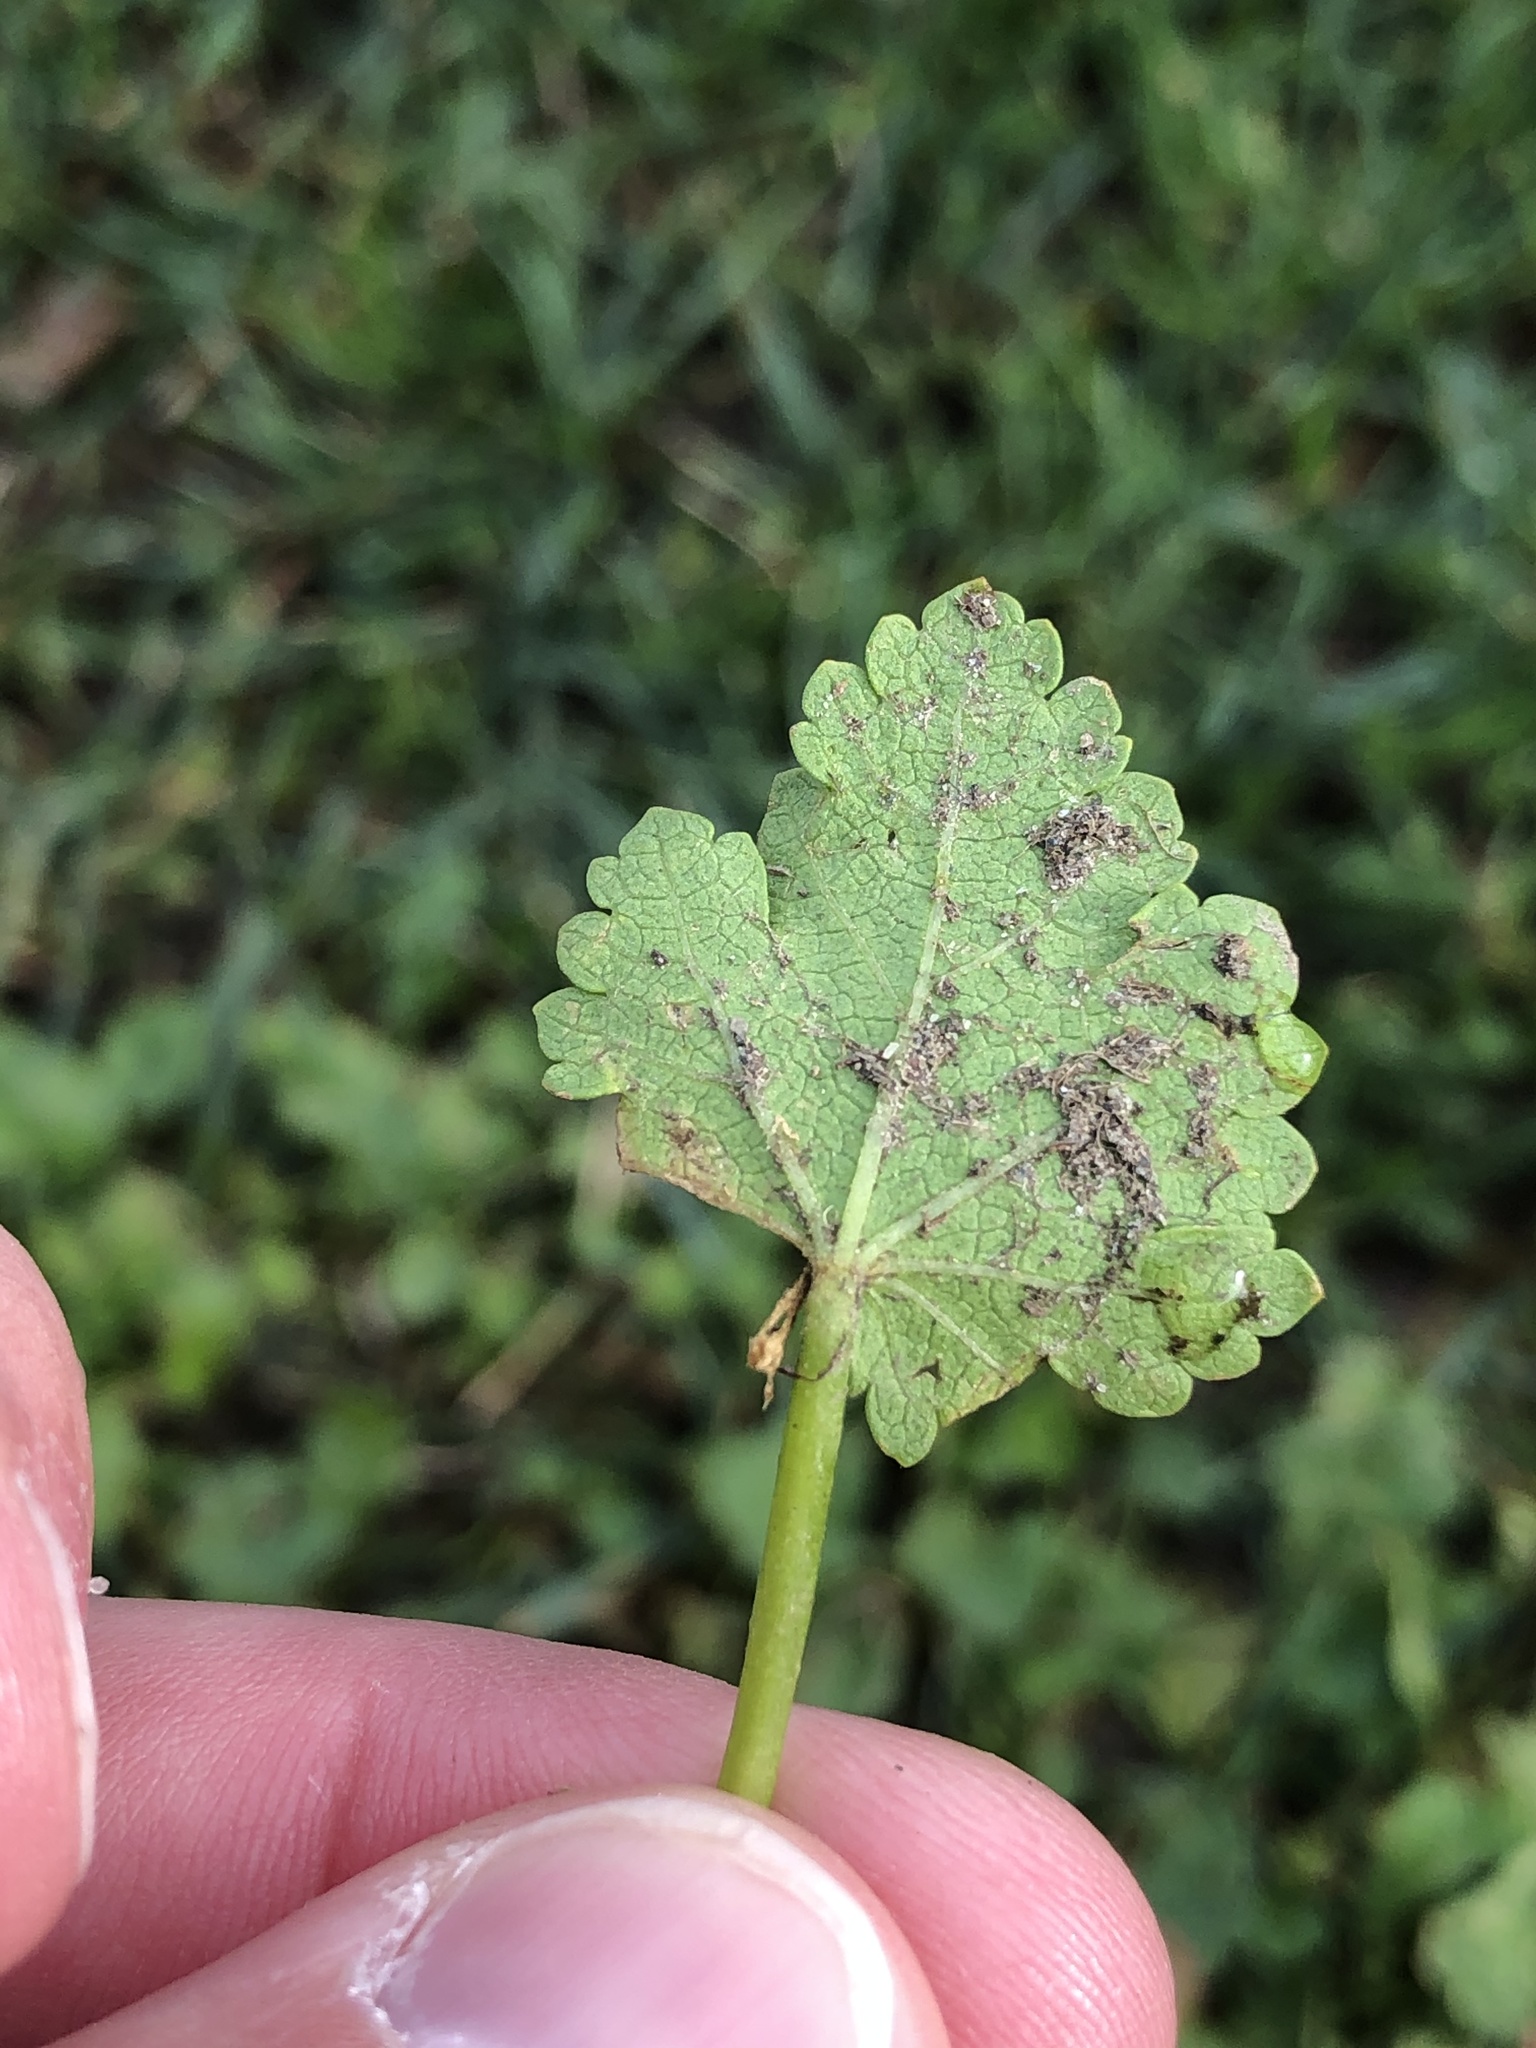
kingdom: Plantae
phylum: Tracheophyta
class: Magnoliopsida
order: Malvales
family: Malvaceae
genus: Modiola
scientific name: Modiola caroliniana
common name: Carolina bristlemallow
